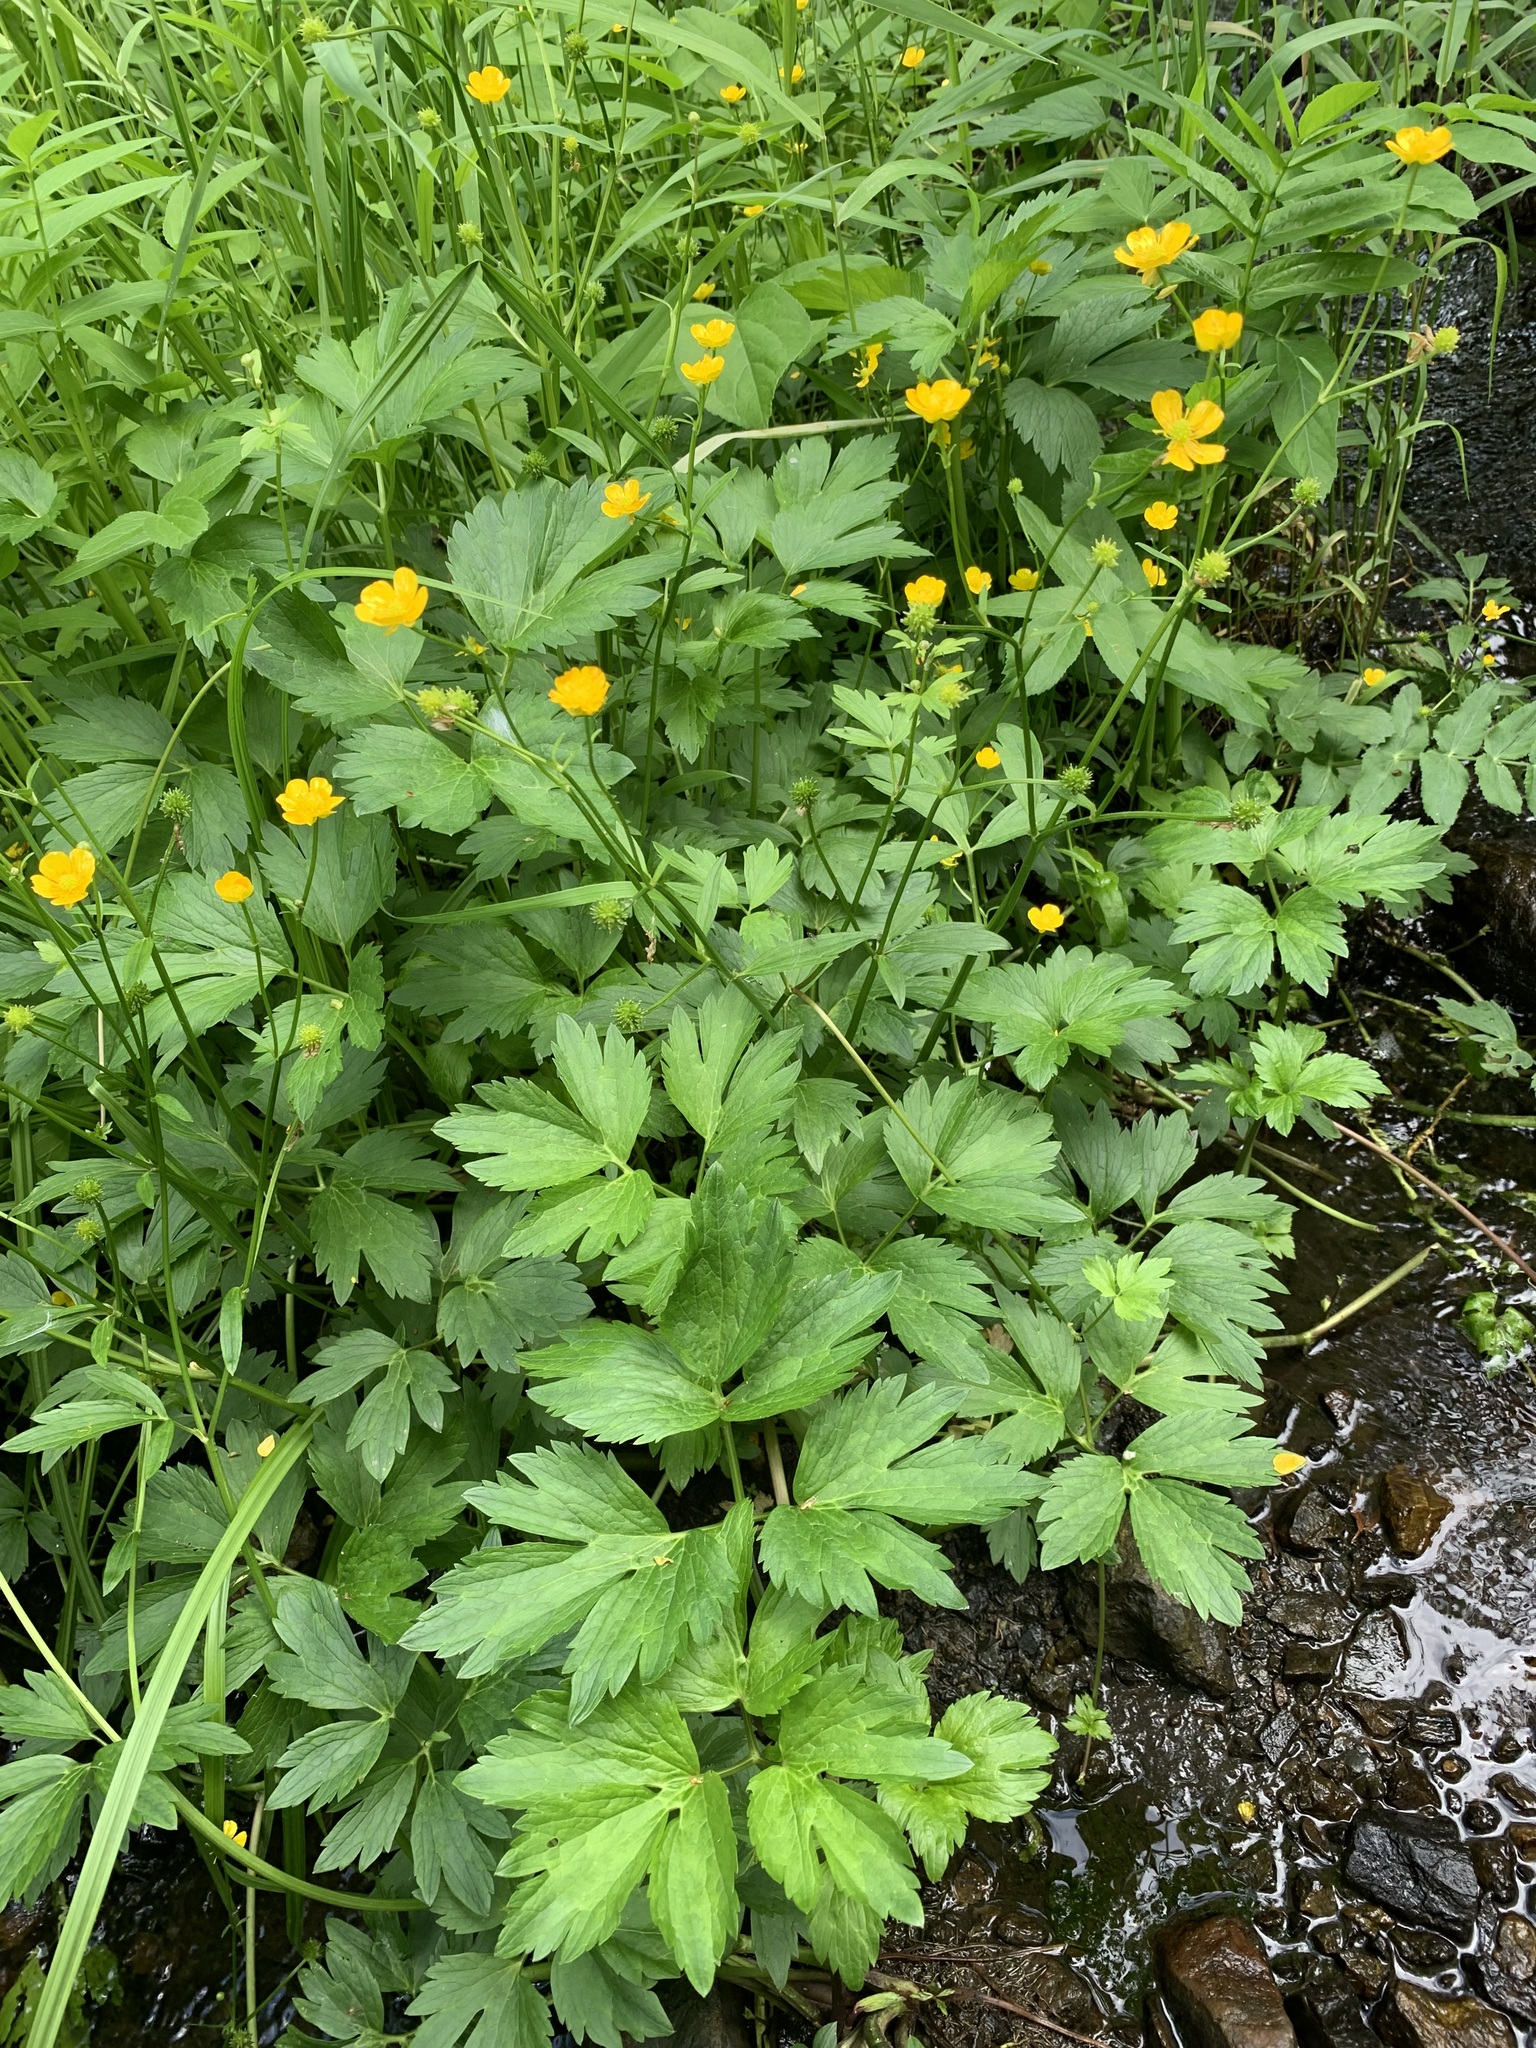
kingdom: Plantae
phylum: Tracheophyta
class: Magnoliopsida
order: Ranunculales
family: Ranunculaceae
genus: Ranunculus
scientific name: Ranunculus repens
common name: Creeping buttercup
